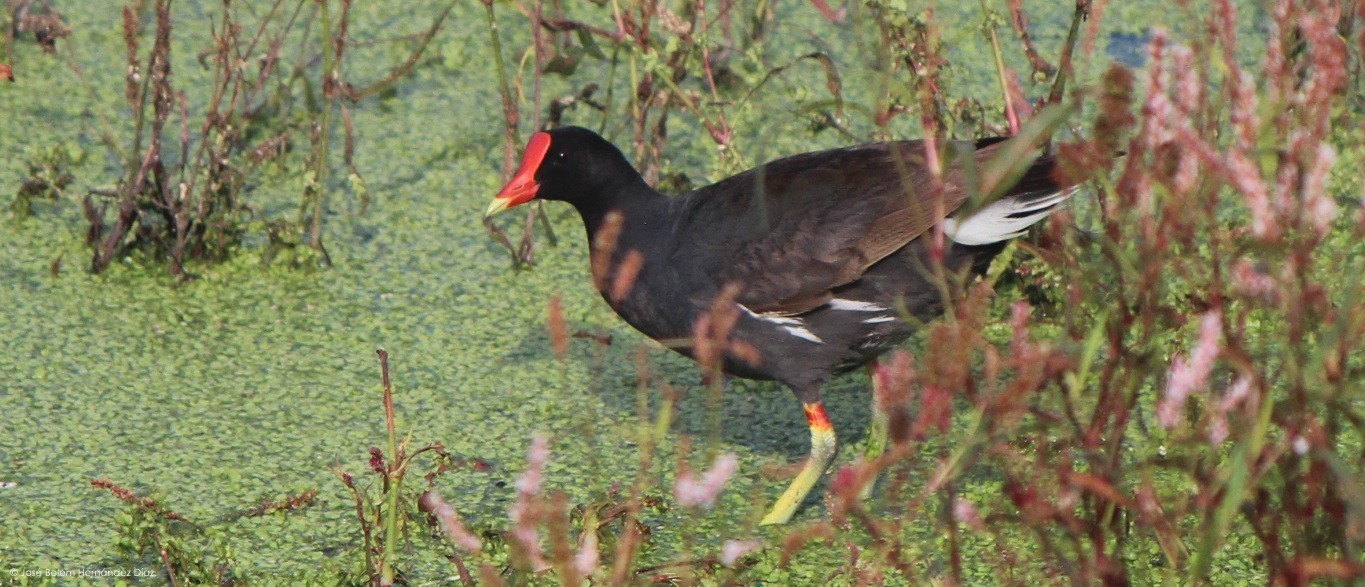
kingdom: Animalia
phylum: Chordata
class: Aves
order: Gruiformes
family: Rallidae
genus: Gallinula
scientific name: Gallinula chloropus
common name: Common moorhen
